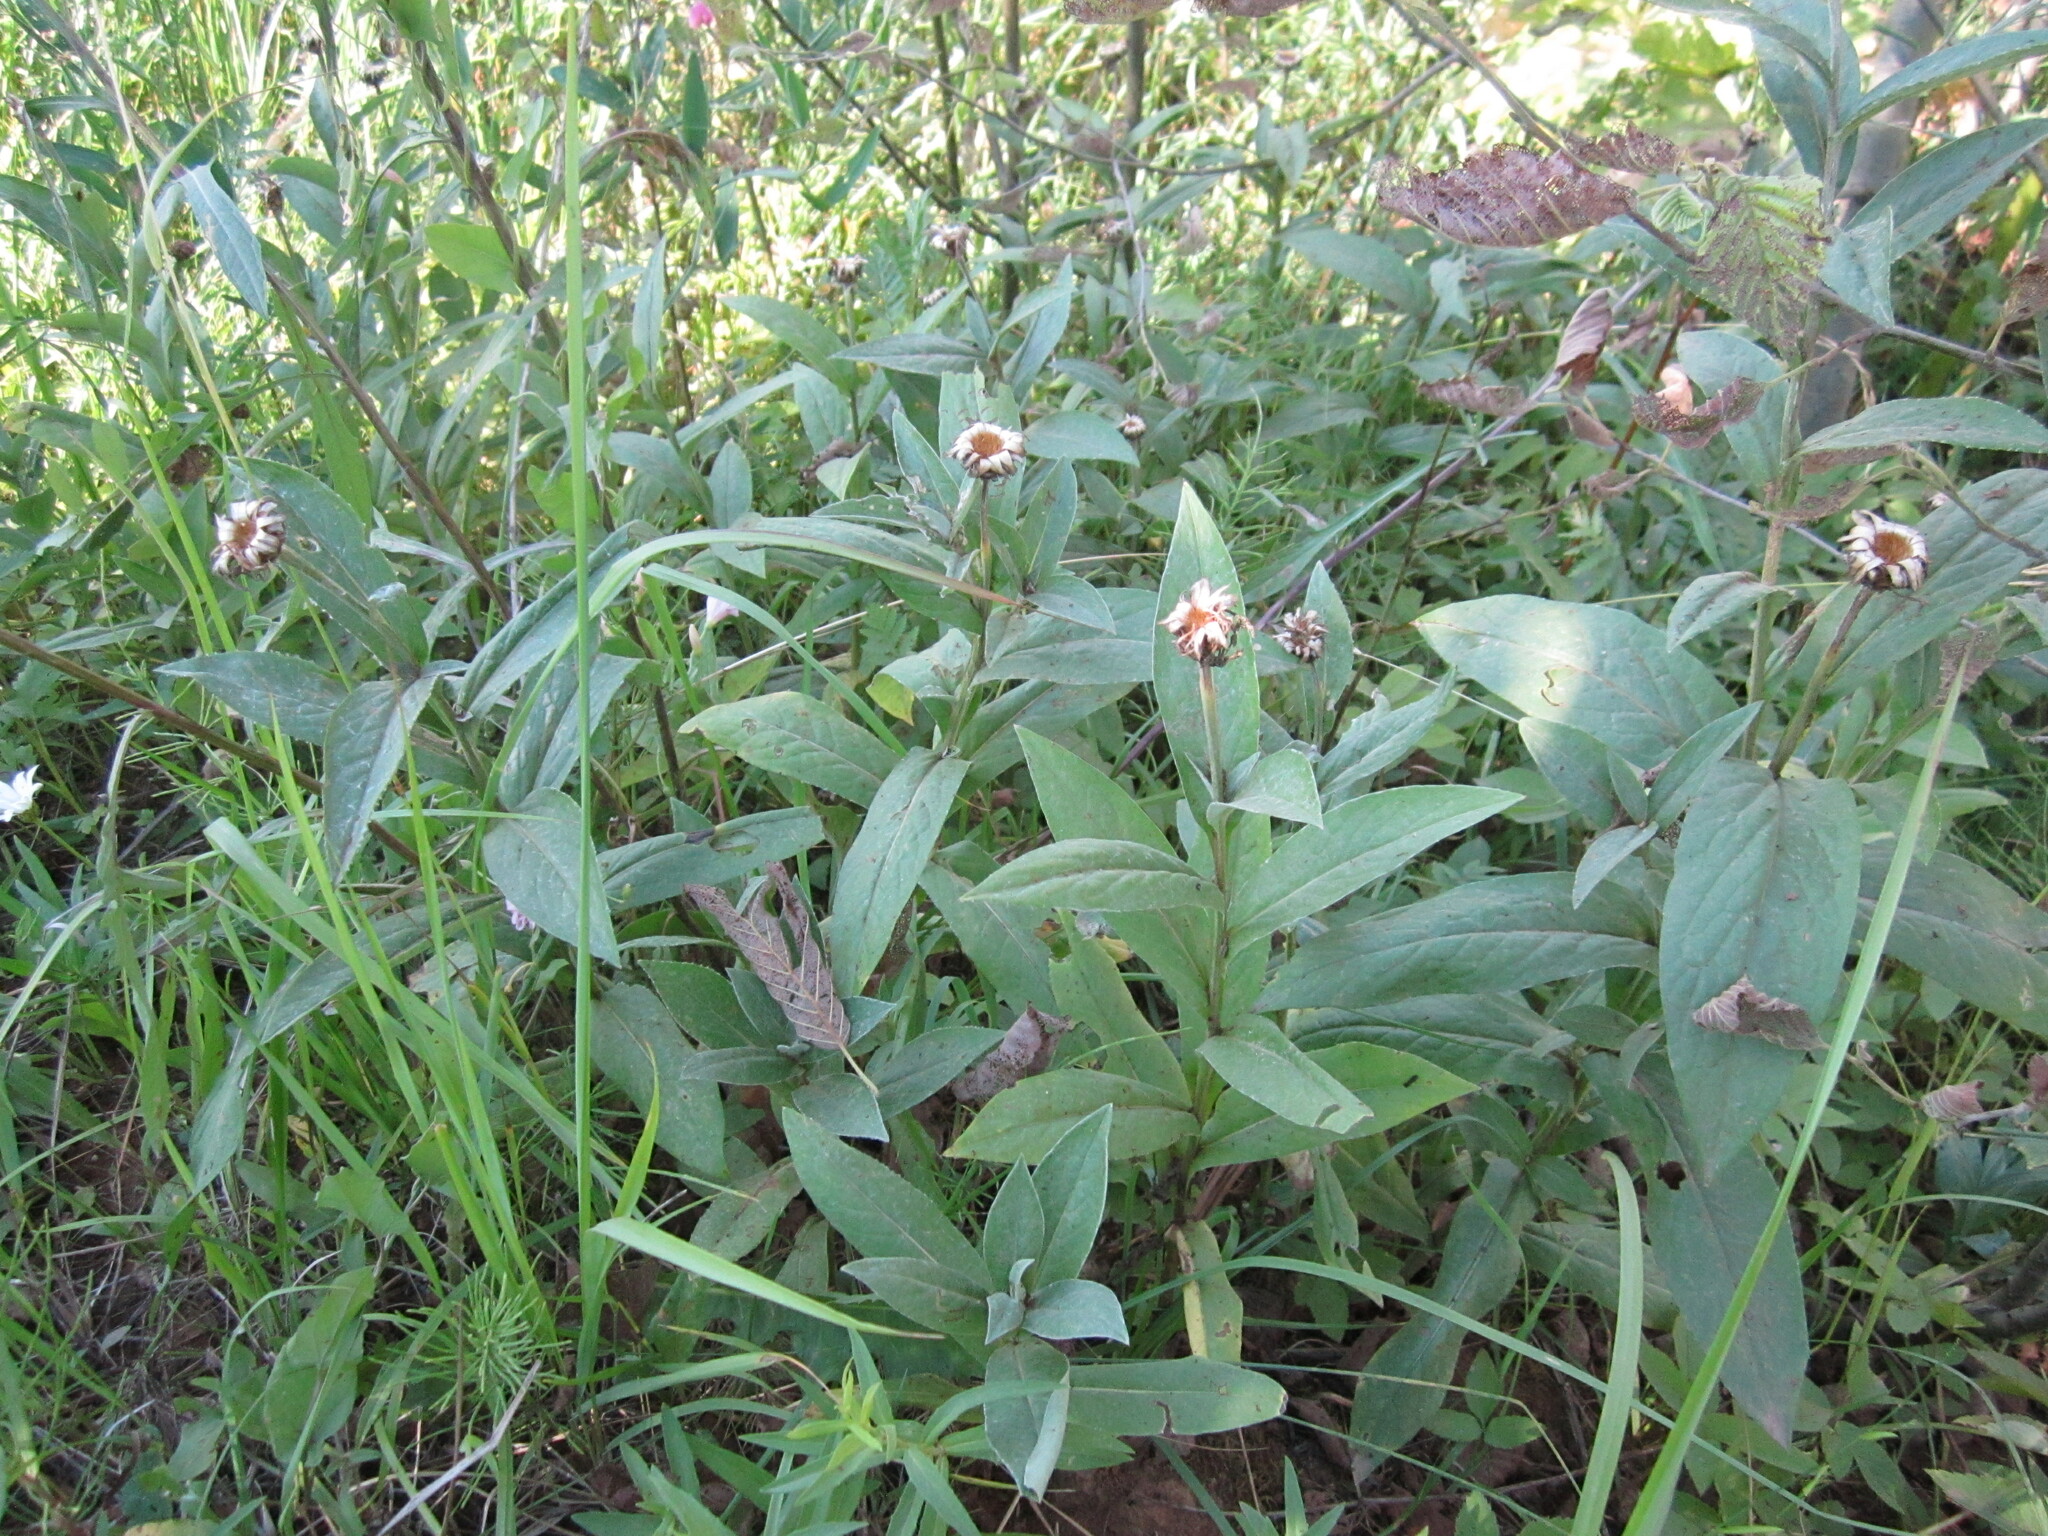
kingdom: Plantae
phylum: Tracheophyta
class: Magnoliopsida
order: Asterales
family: Asteraceae
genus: Centaurea
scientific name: Centaurea montana
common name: Perennial cornflower
